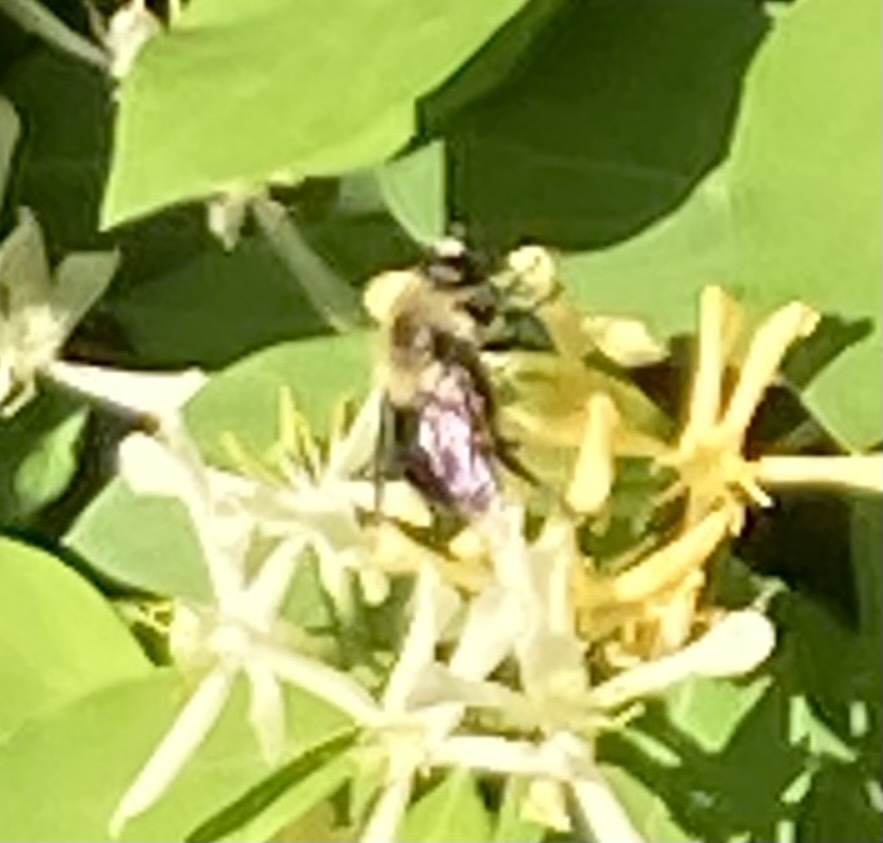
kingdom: Animalia
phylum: Arthropoda
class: Insecta
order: Diptera
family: Syrphidae
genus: Imatisma
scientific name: Imatisma bautias
